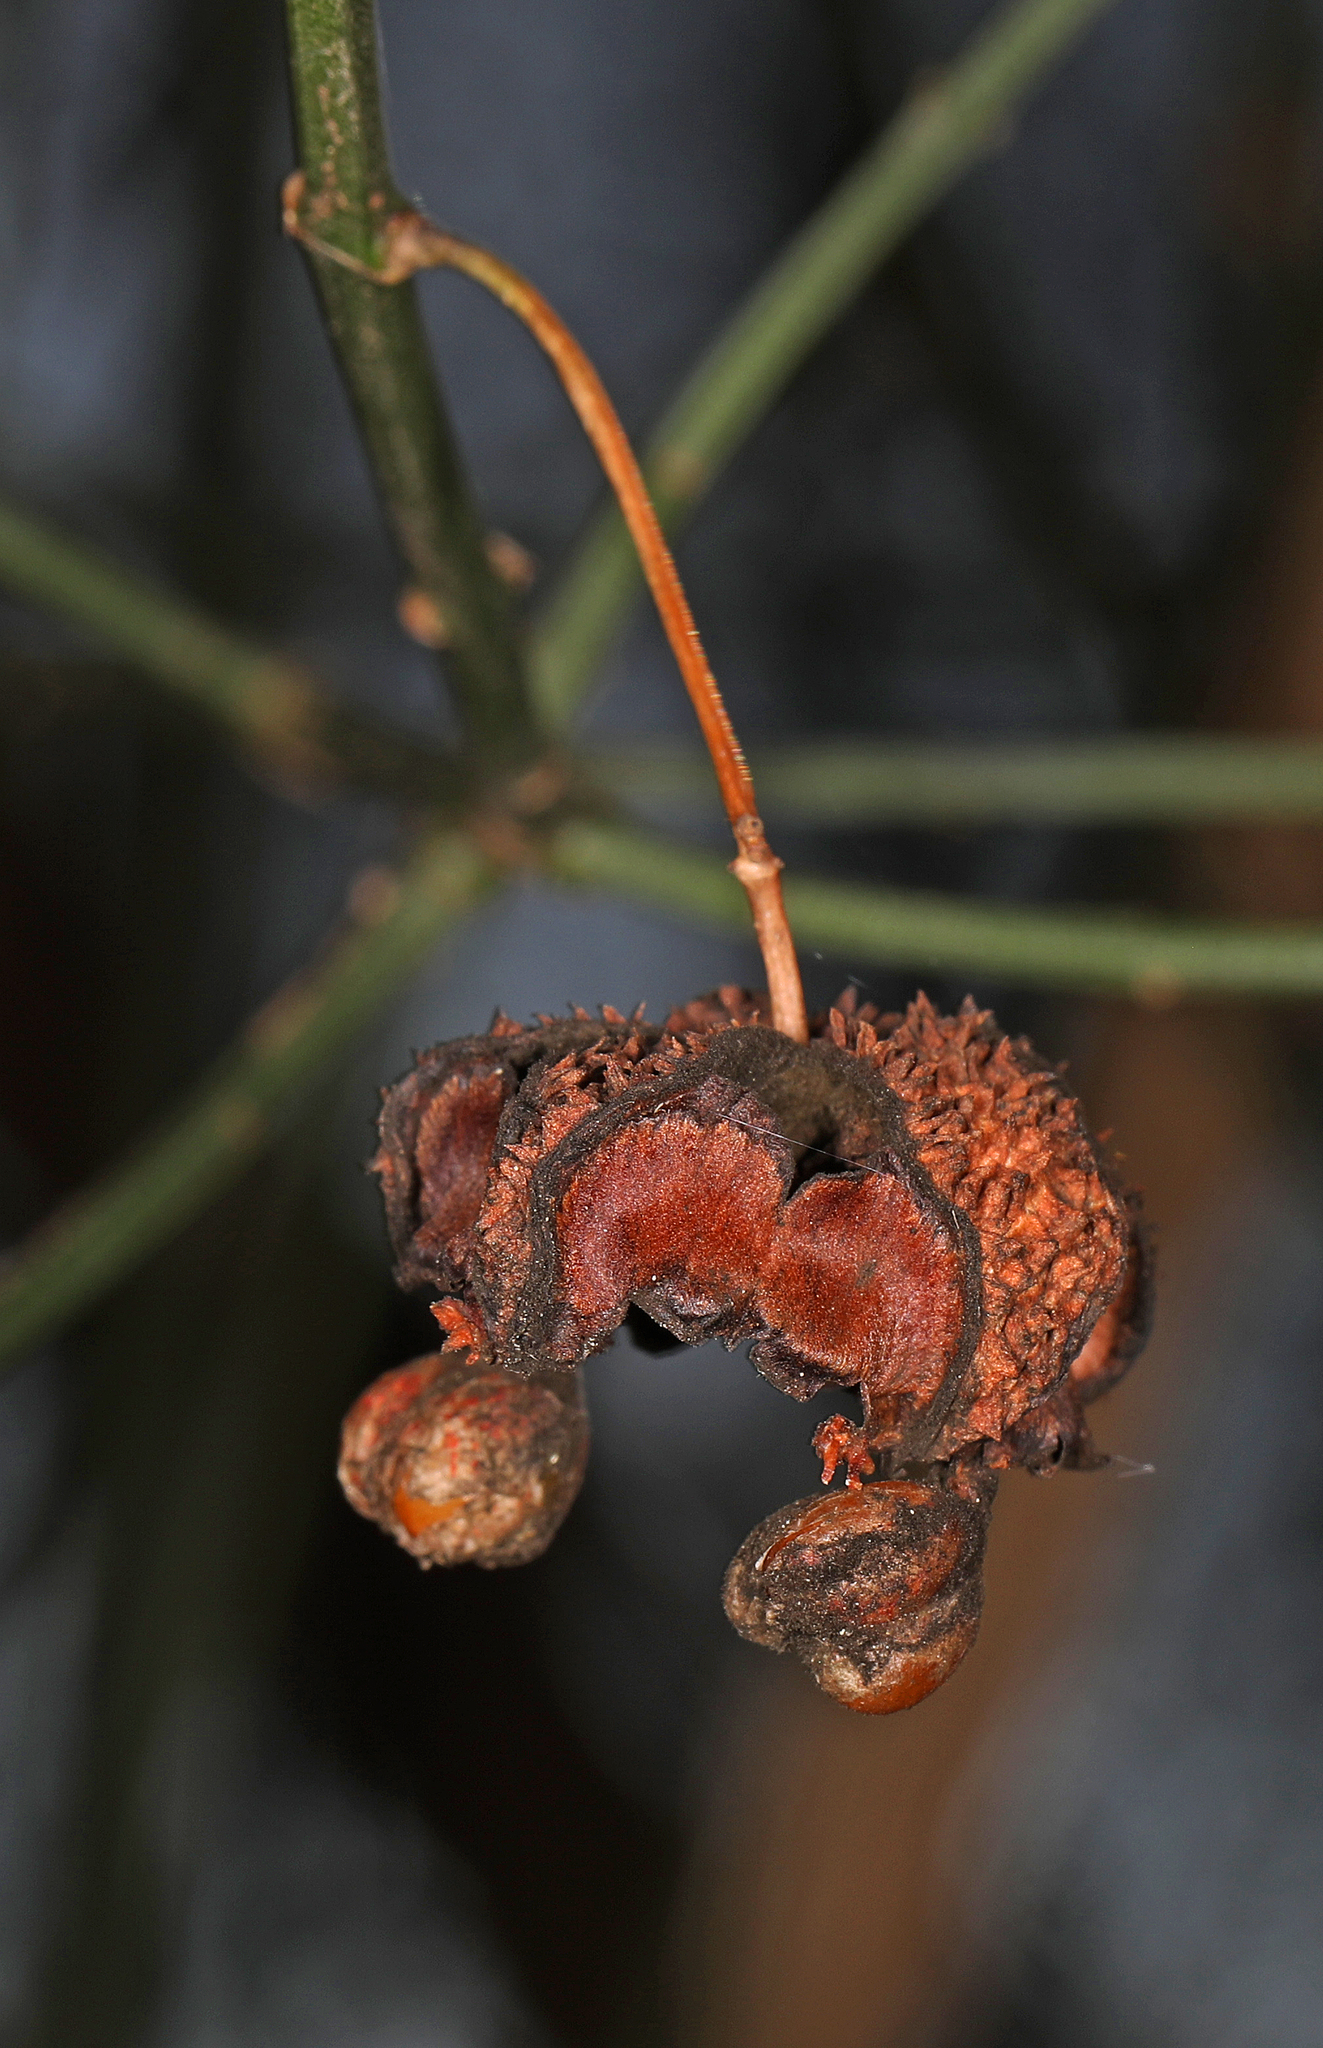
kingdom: Plantae
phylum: Tracheophyta
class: Magnoliopsida
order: Celastrales
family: Celastraceae
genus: Euonymus
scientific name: Euonymus americanus
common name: Bursting-heart
